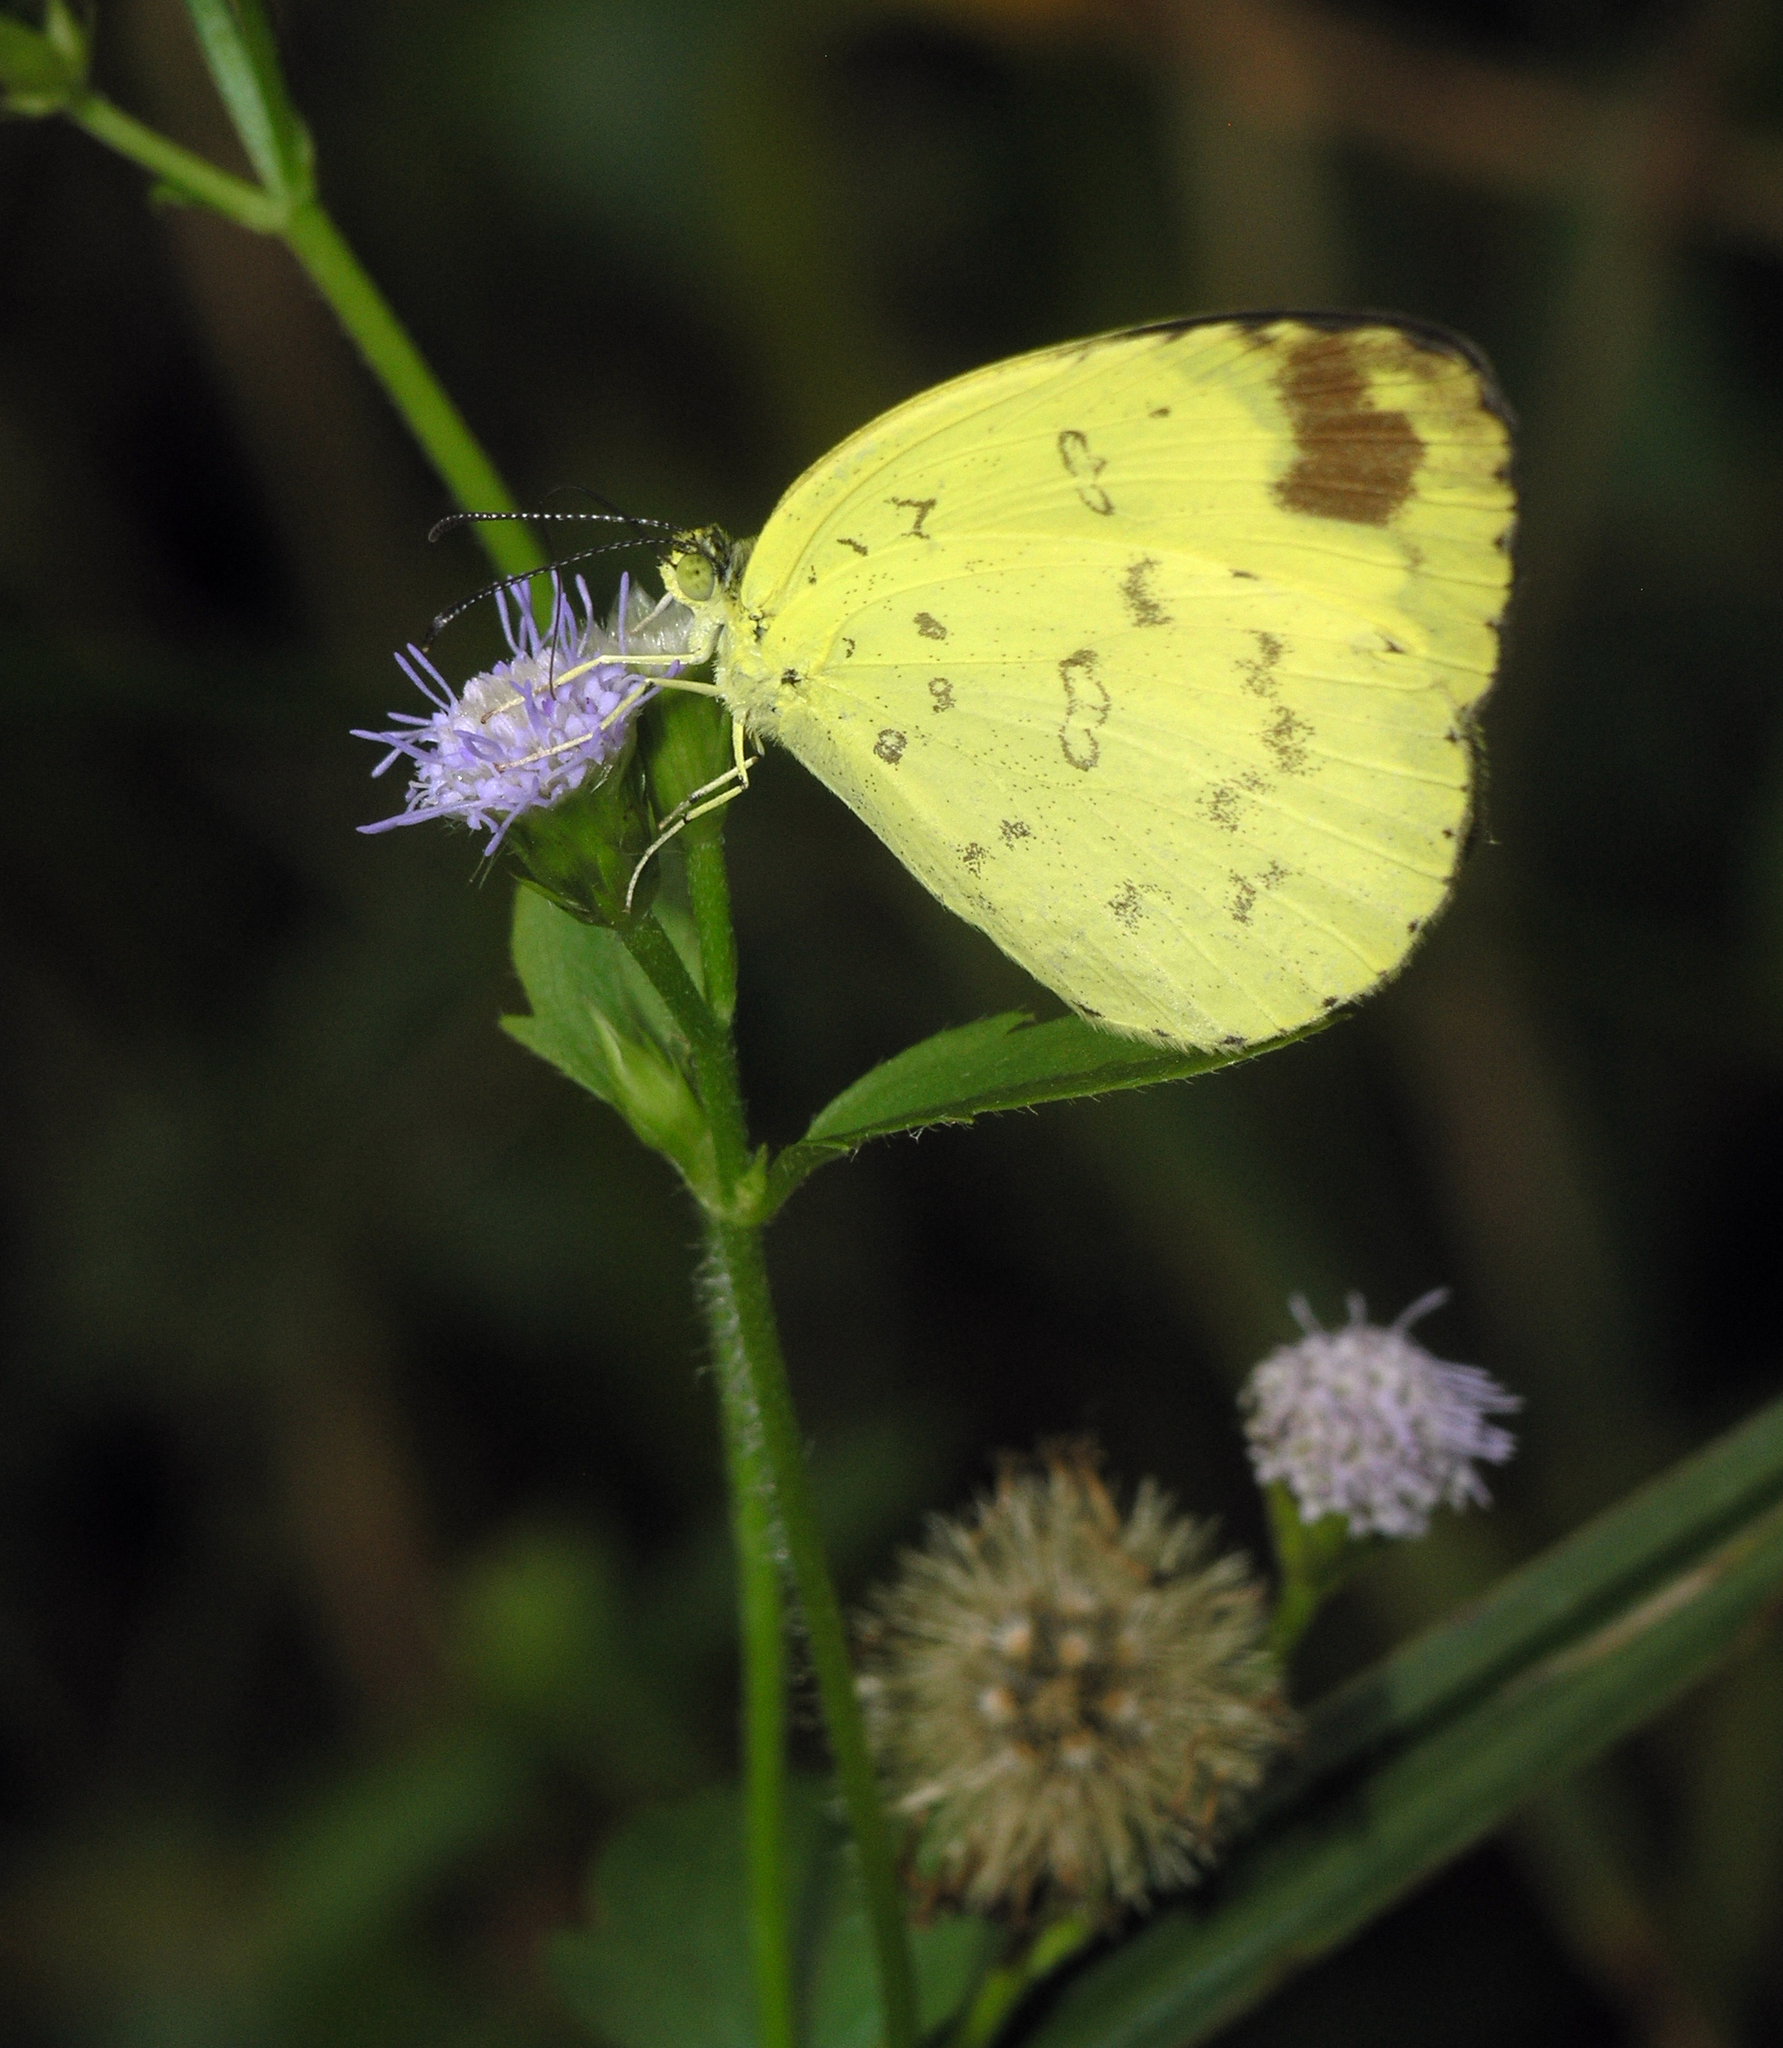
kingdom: Animalia
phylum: Arthropoda
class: Insecta
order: Lepidoptera
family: Pieridae
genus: Eurema
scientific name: Eurema blanda
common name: Three-spot grass yellow
